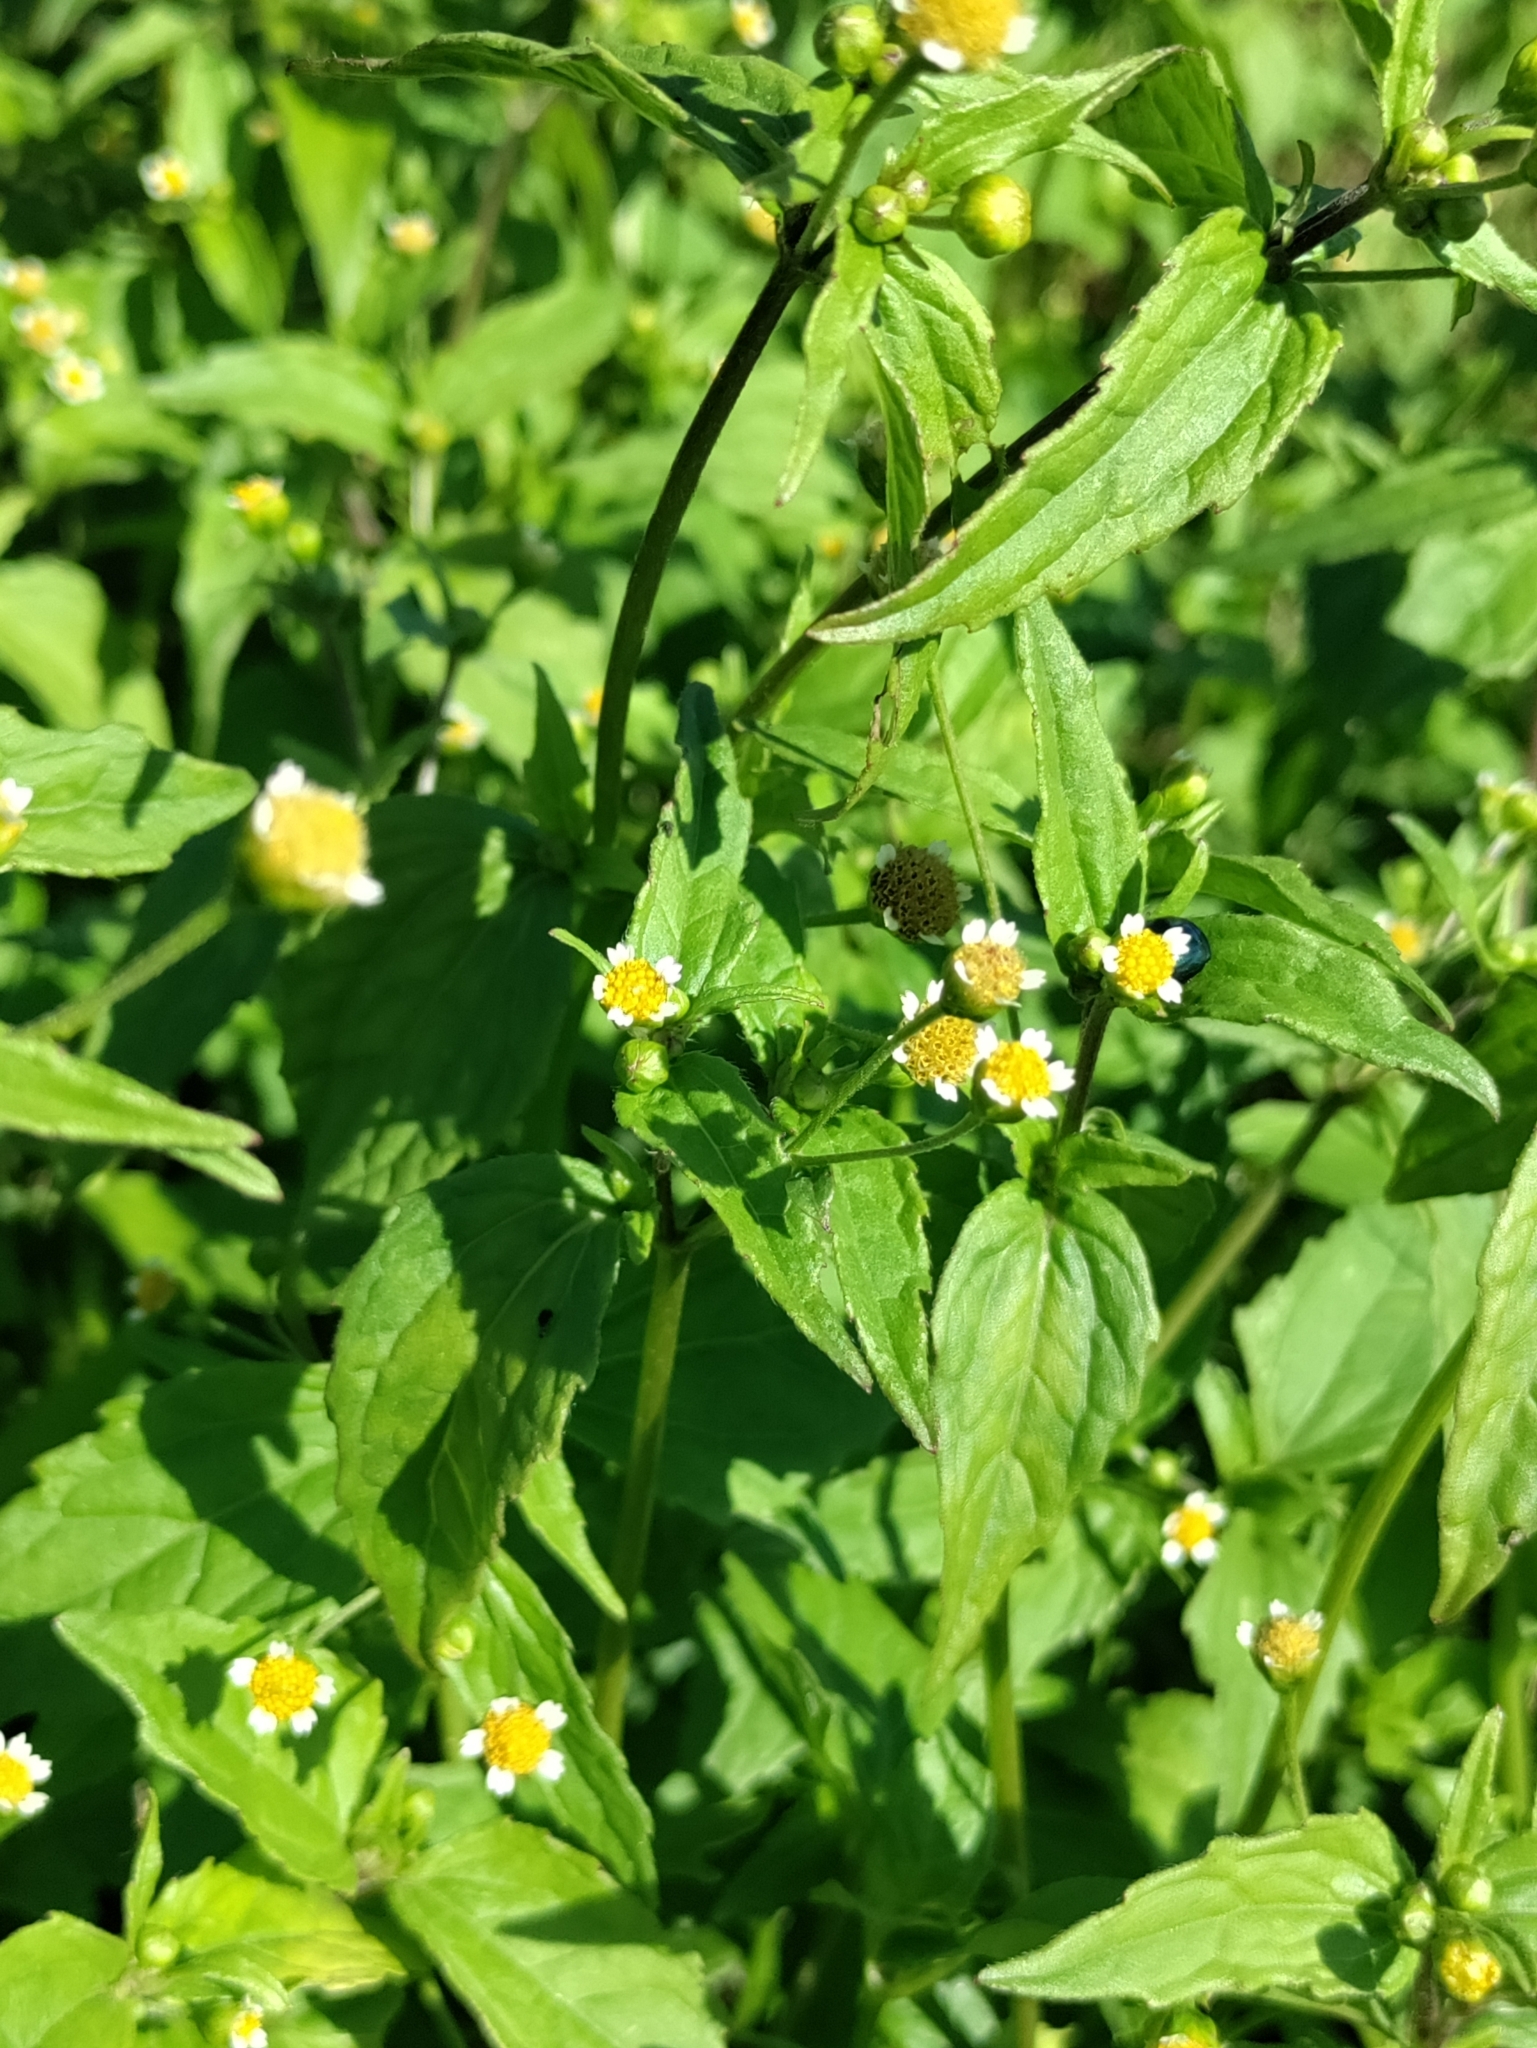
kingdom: Plantae
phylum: Tracheophyta
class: Magnoliopsida
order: Asterales
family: Asteraceae
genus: Galinsoga
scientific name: Galinsoga parviflora
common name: Gallant soldier
